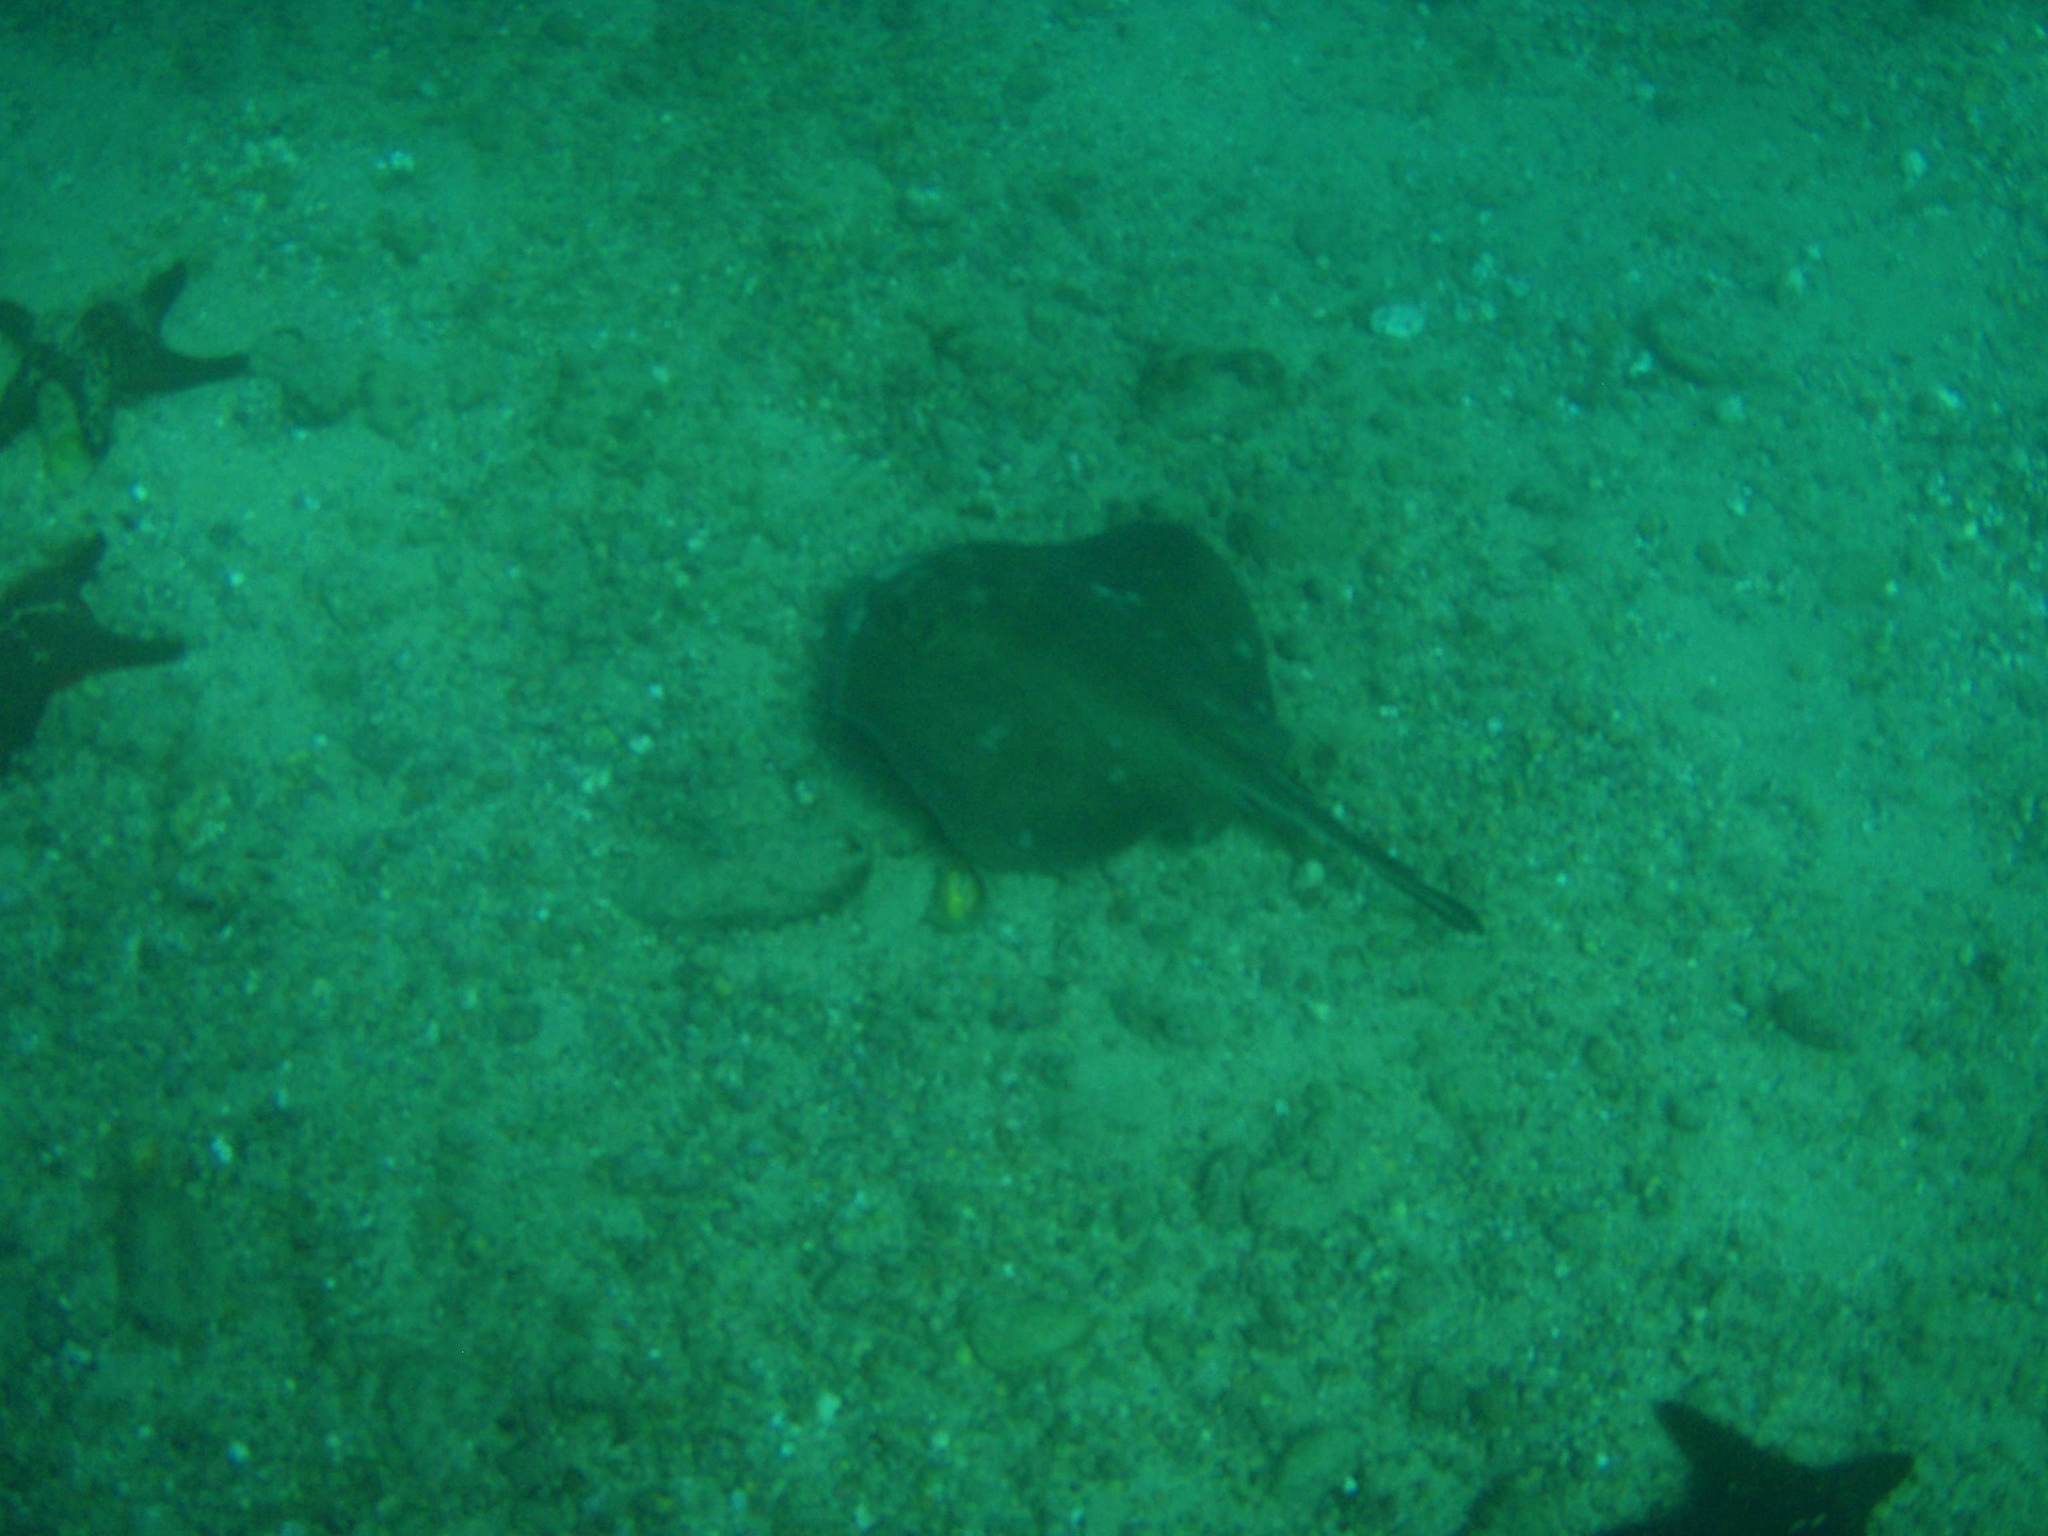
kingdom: Animalia
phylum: Chordata
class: Elasmobranchii
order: Myliobatiformes
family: Dasyatidae
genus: Hypanus
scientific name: Hypanus dipterurus
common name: Diamond stingray
